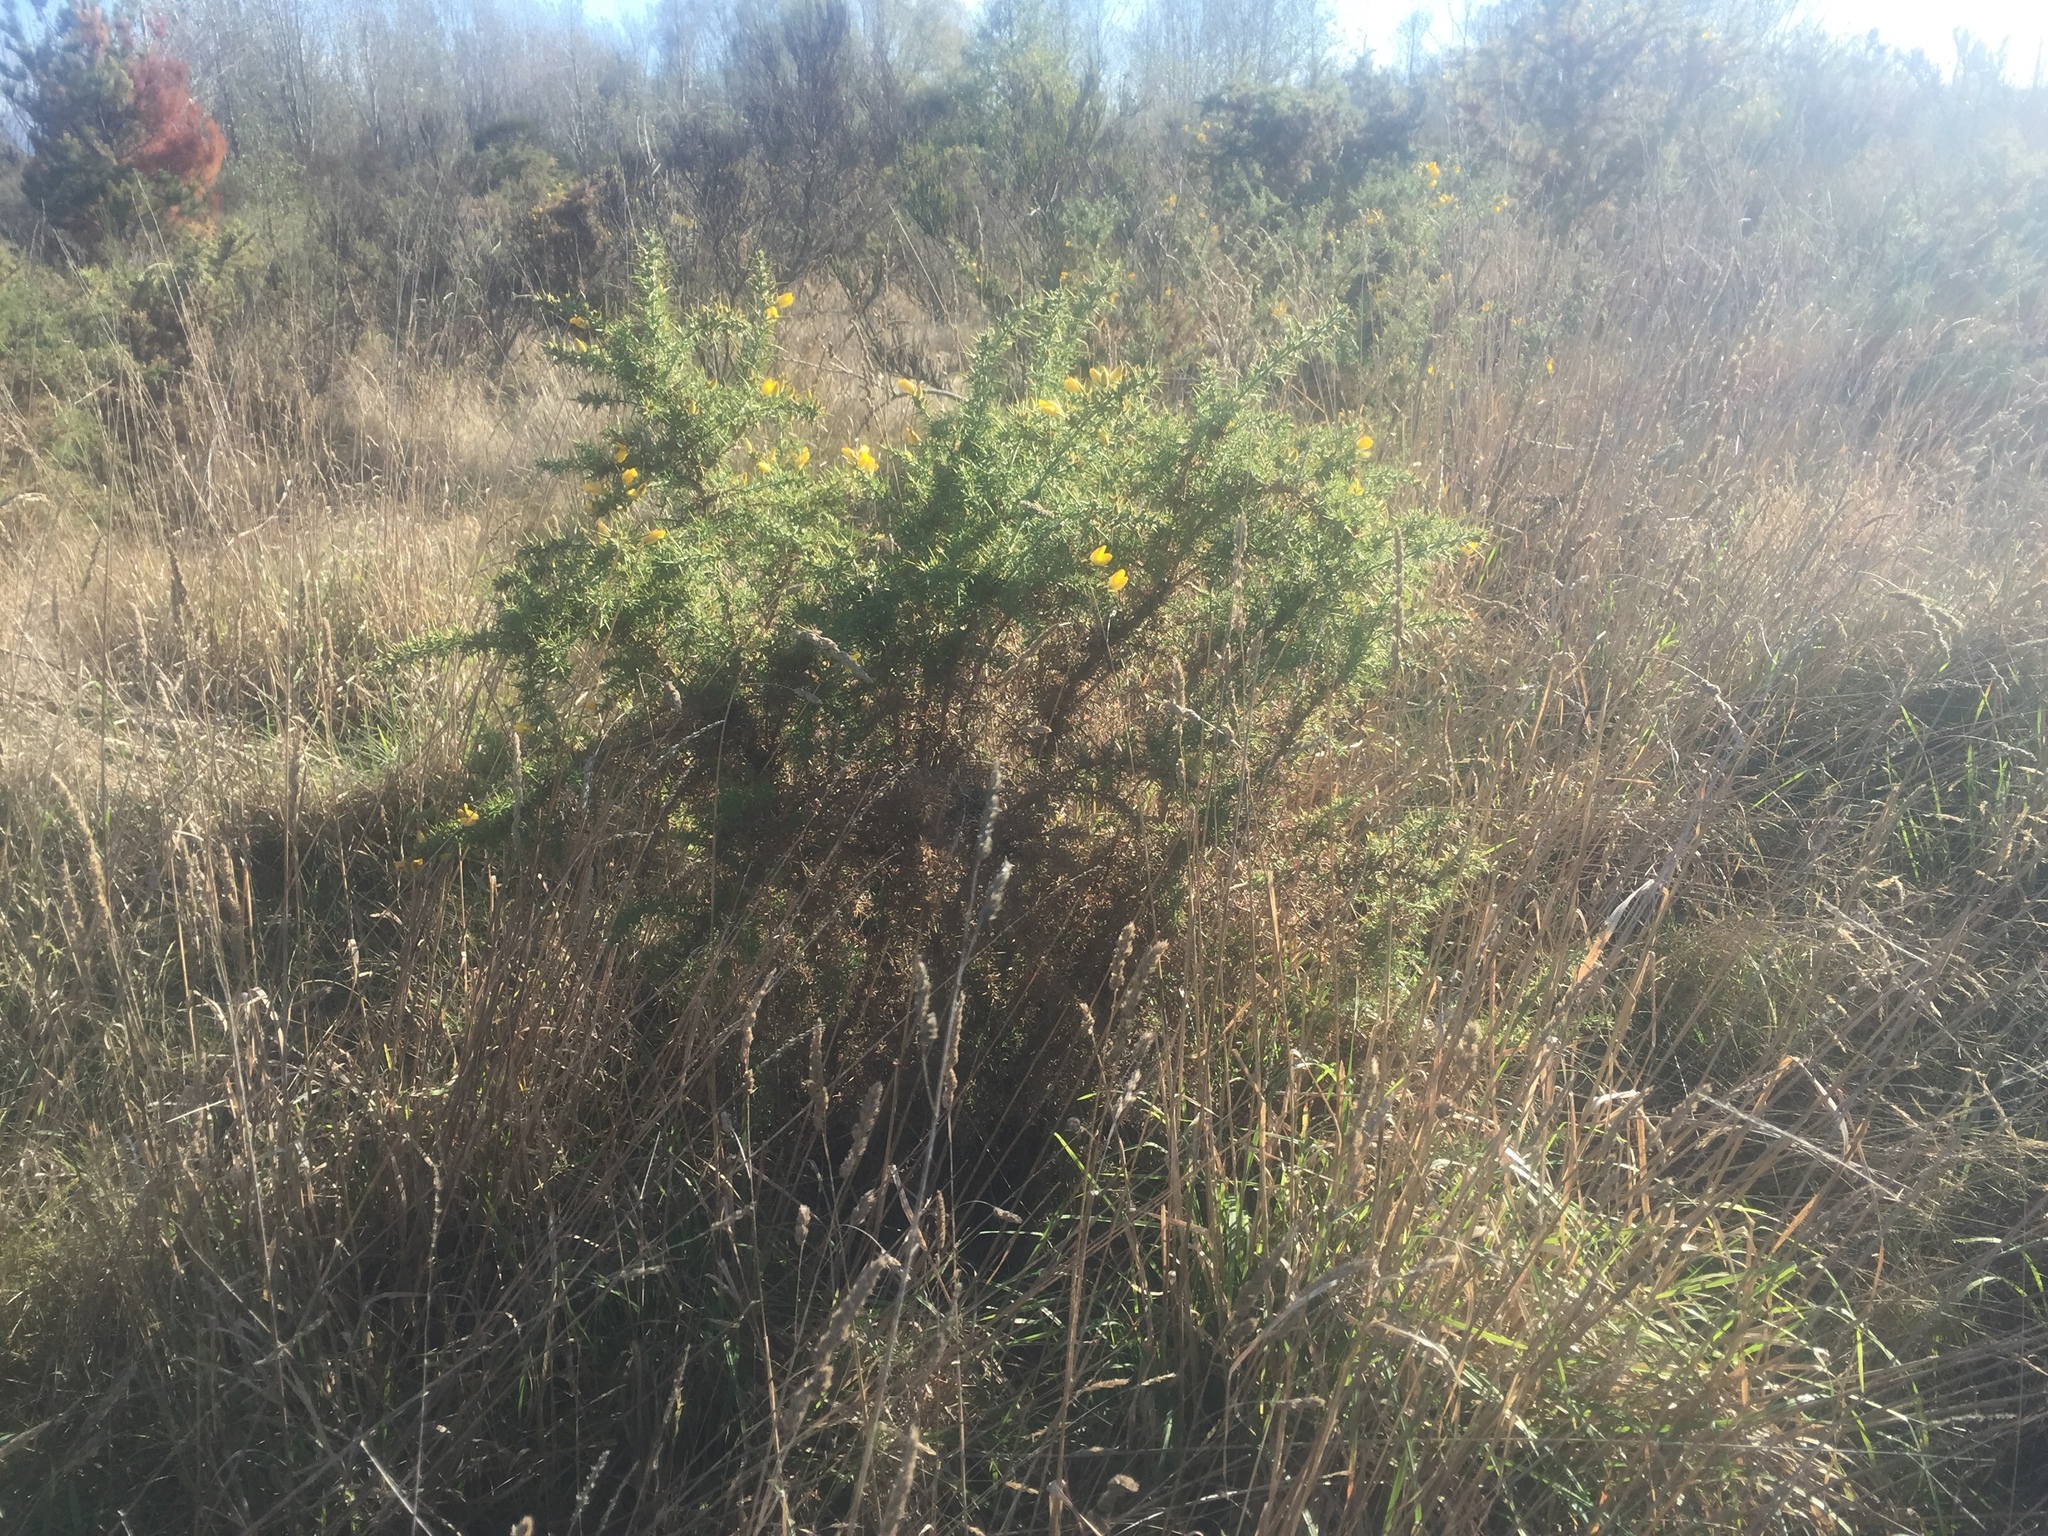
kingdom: Plantae
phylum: Tracheophyta
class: Magnoliopsida
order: Fabales
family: Fabaceae
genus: Ulex
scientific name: Ulex europaeus
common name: Common gorse
